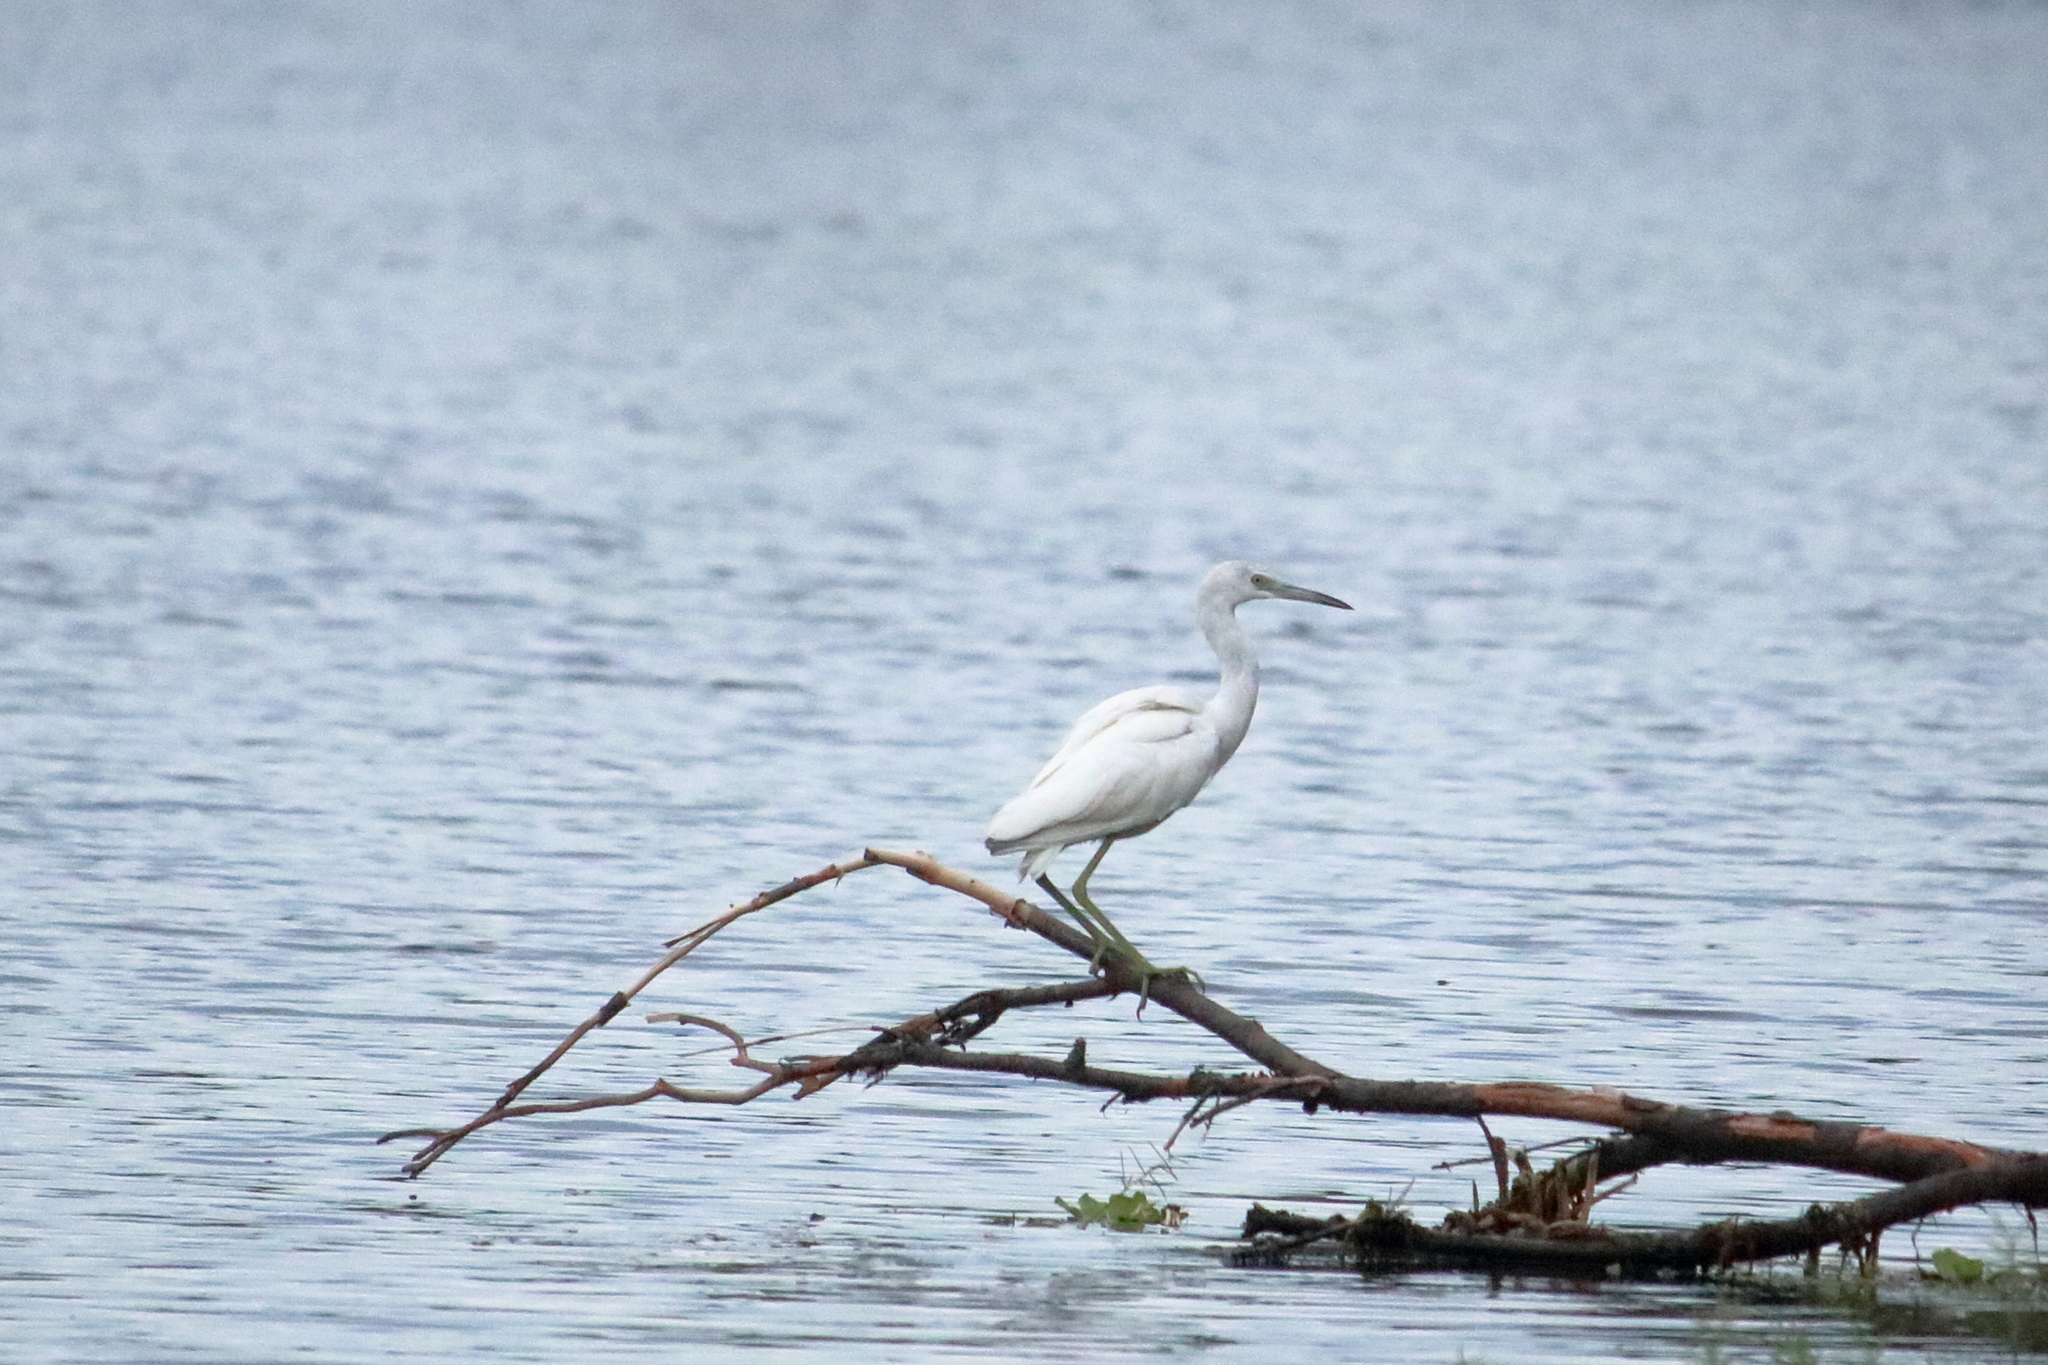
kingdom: Animalia
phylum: Chordata
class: Aves
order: Pelecaniformes
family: Ardeidae
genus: Egretta
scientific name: Egretta caerulea
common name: Little blue heron
